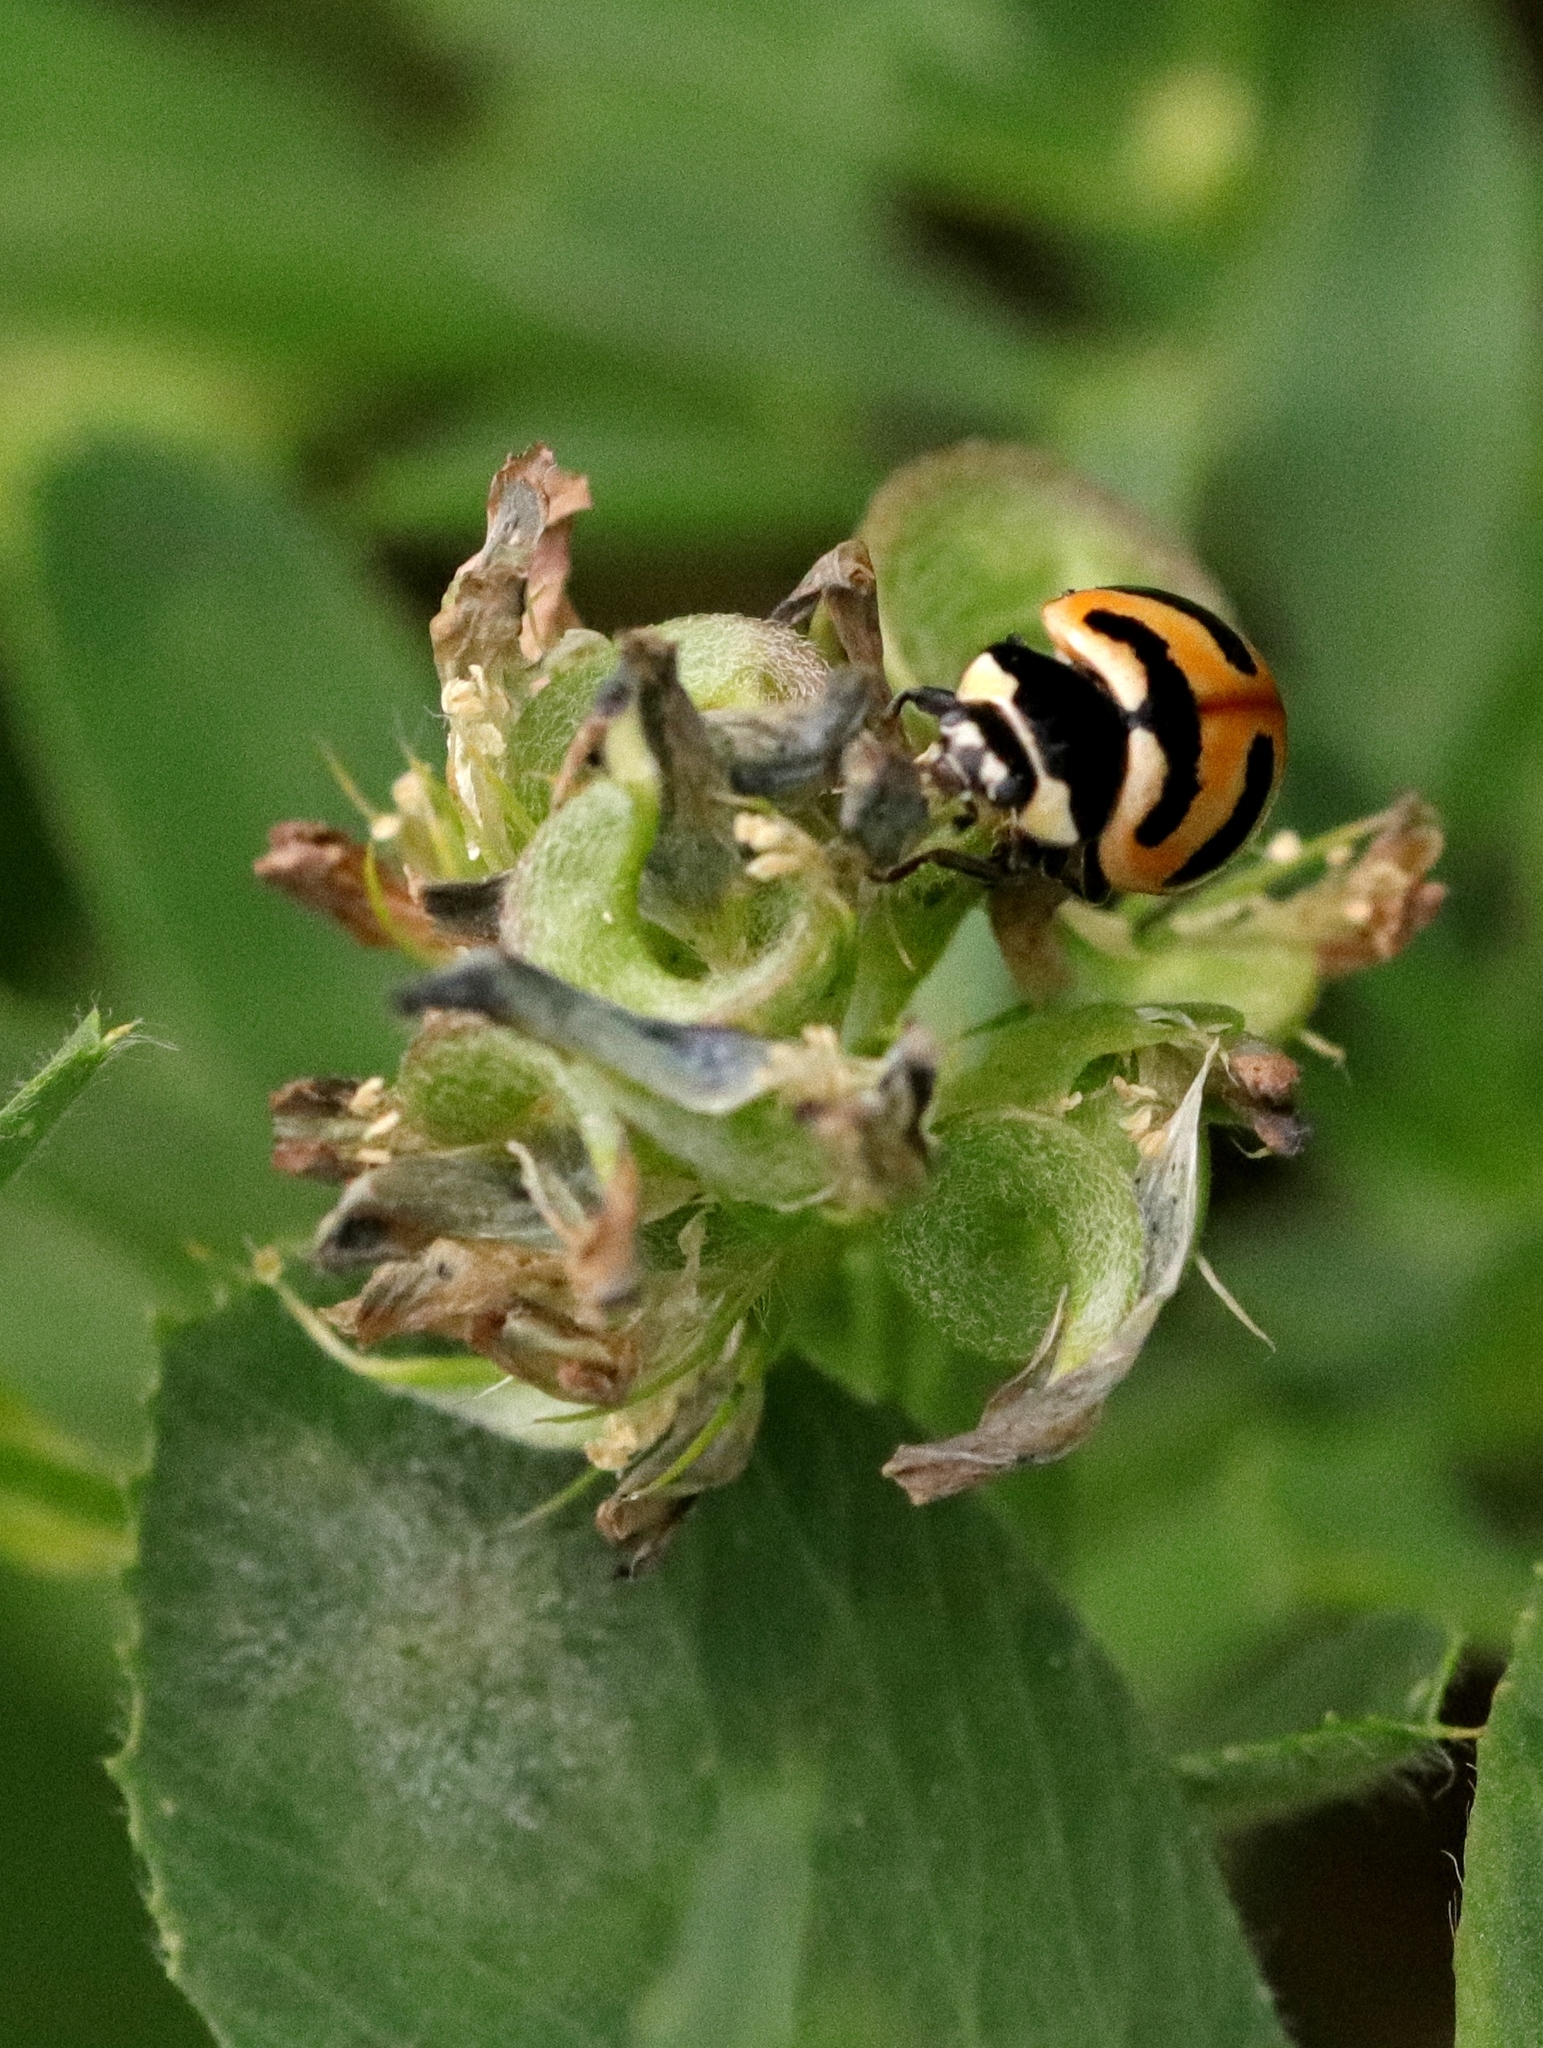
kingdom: Animalia
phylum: Arthropoda
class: Insecta
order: Coleoptera
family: Coccinellidae
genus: Coccinella
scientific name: Coccinella trifasciata
